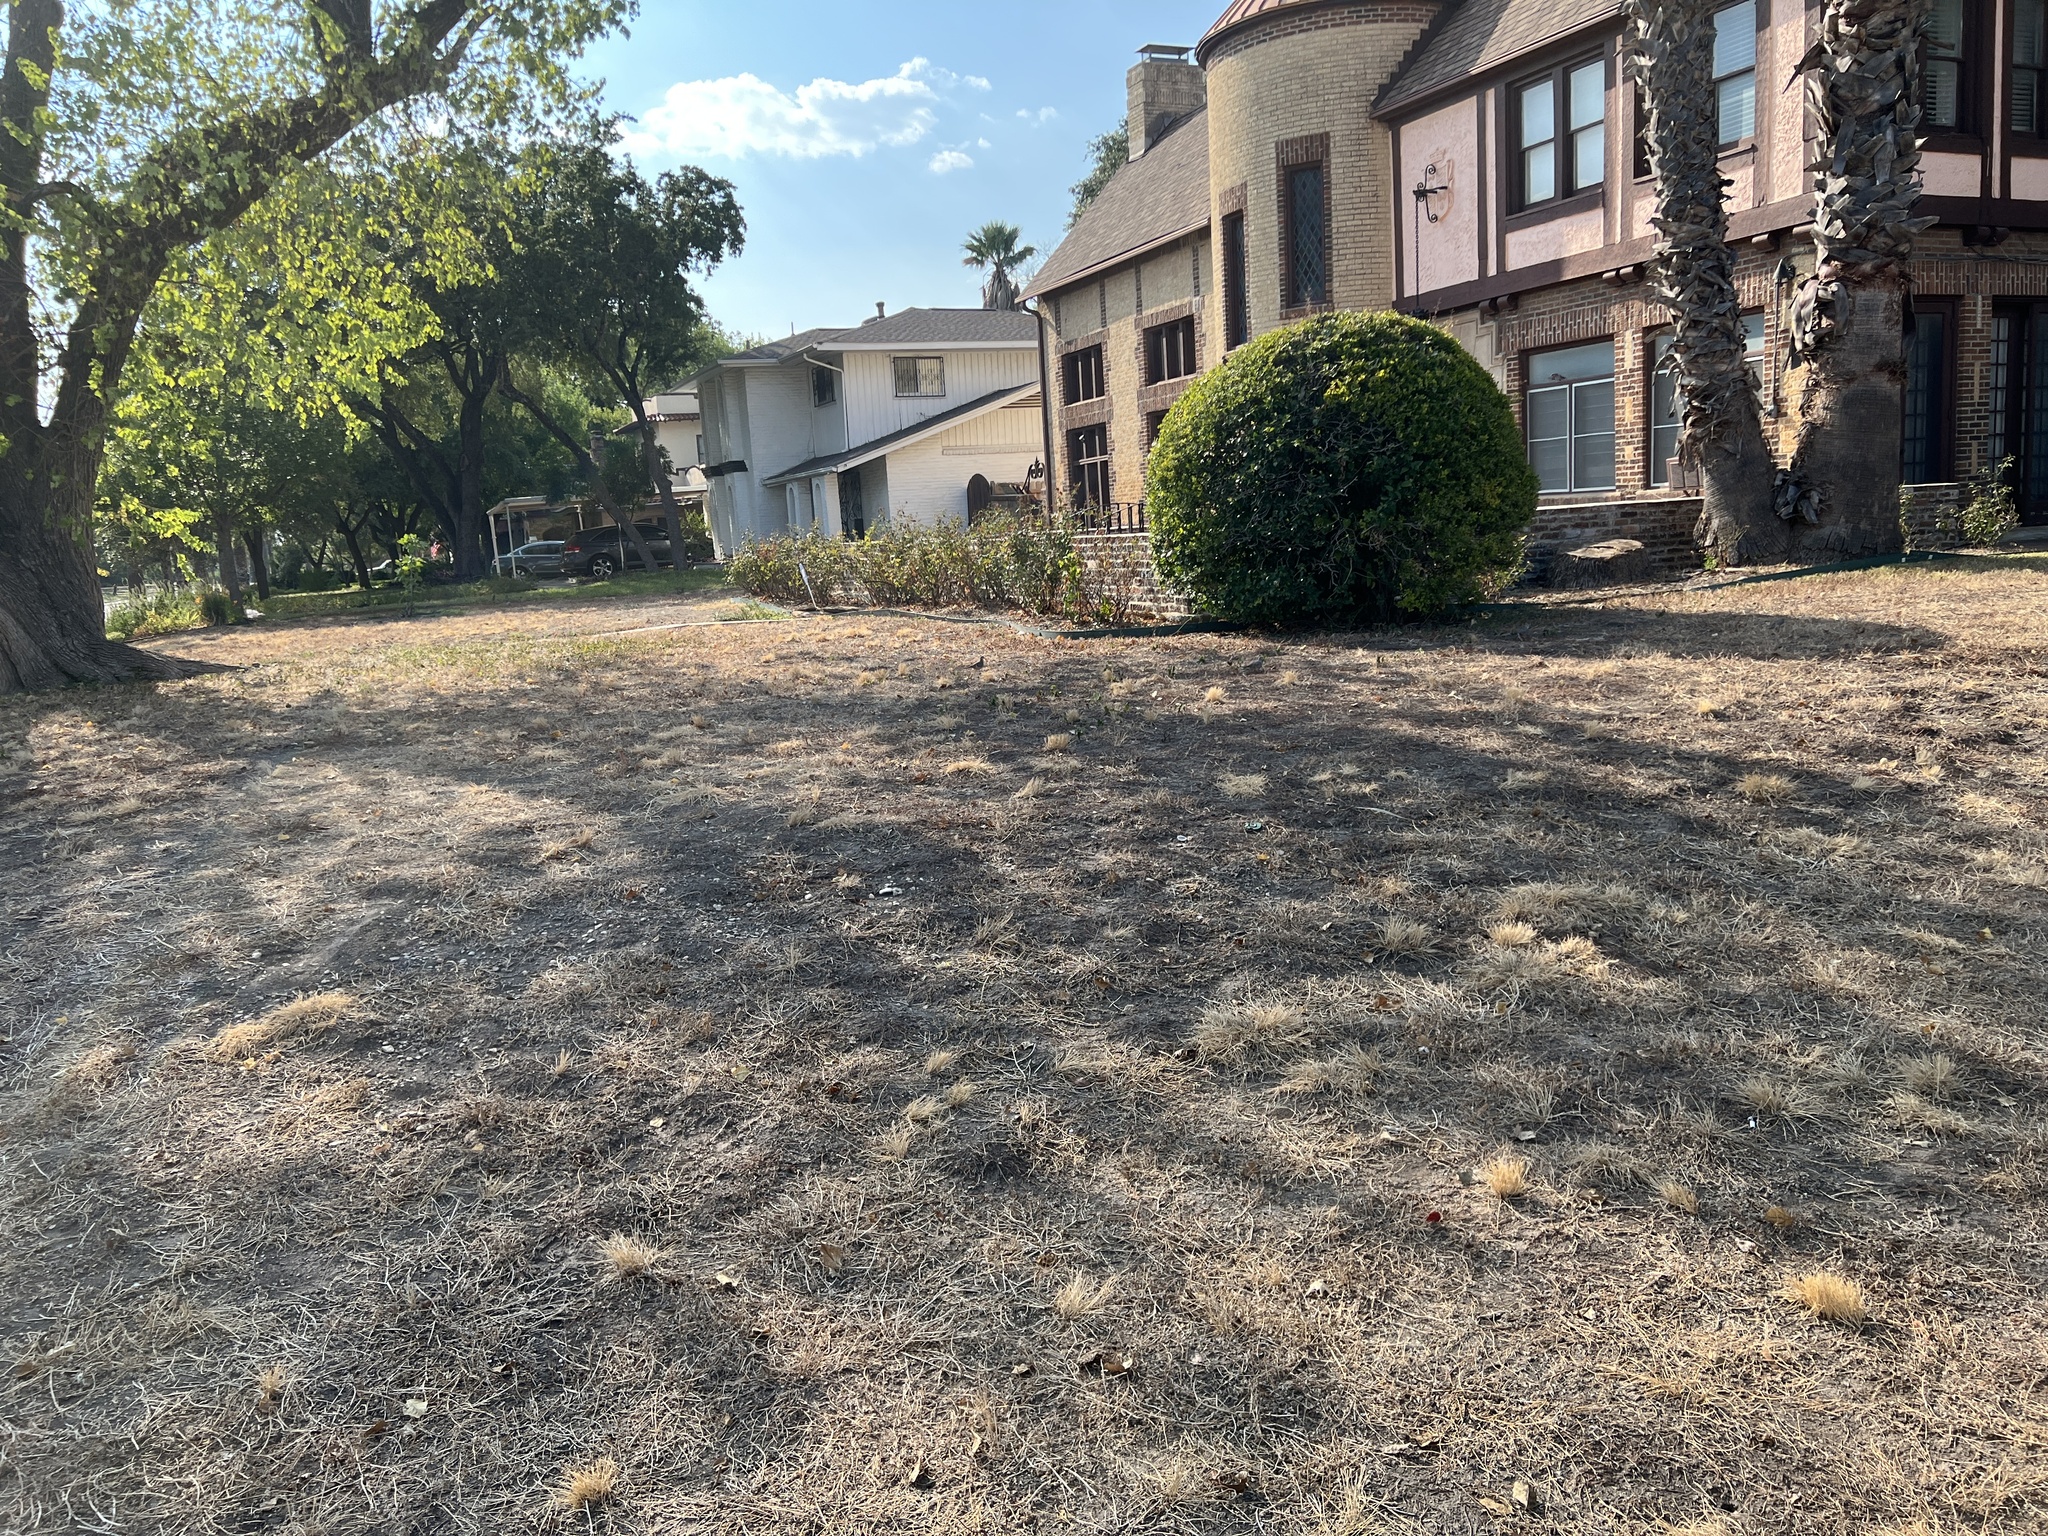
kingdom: Animalia
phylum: Chordata
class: Aves
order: Columbiformes
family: Columbidae
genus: Columbina
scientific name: Columbina inca
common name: Inca dove
